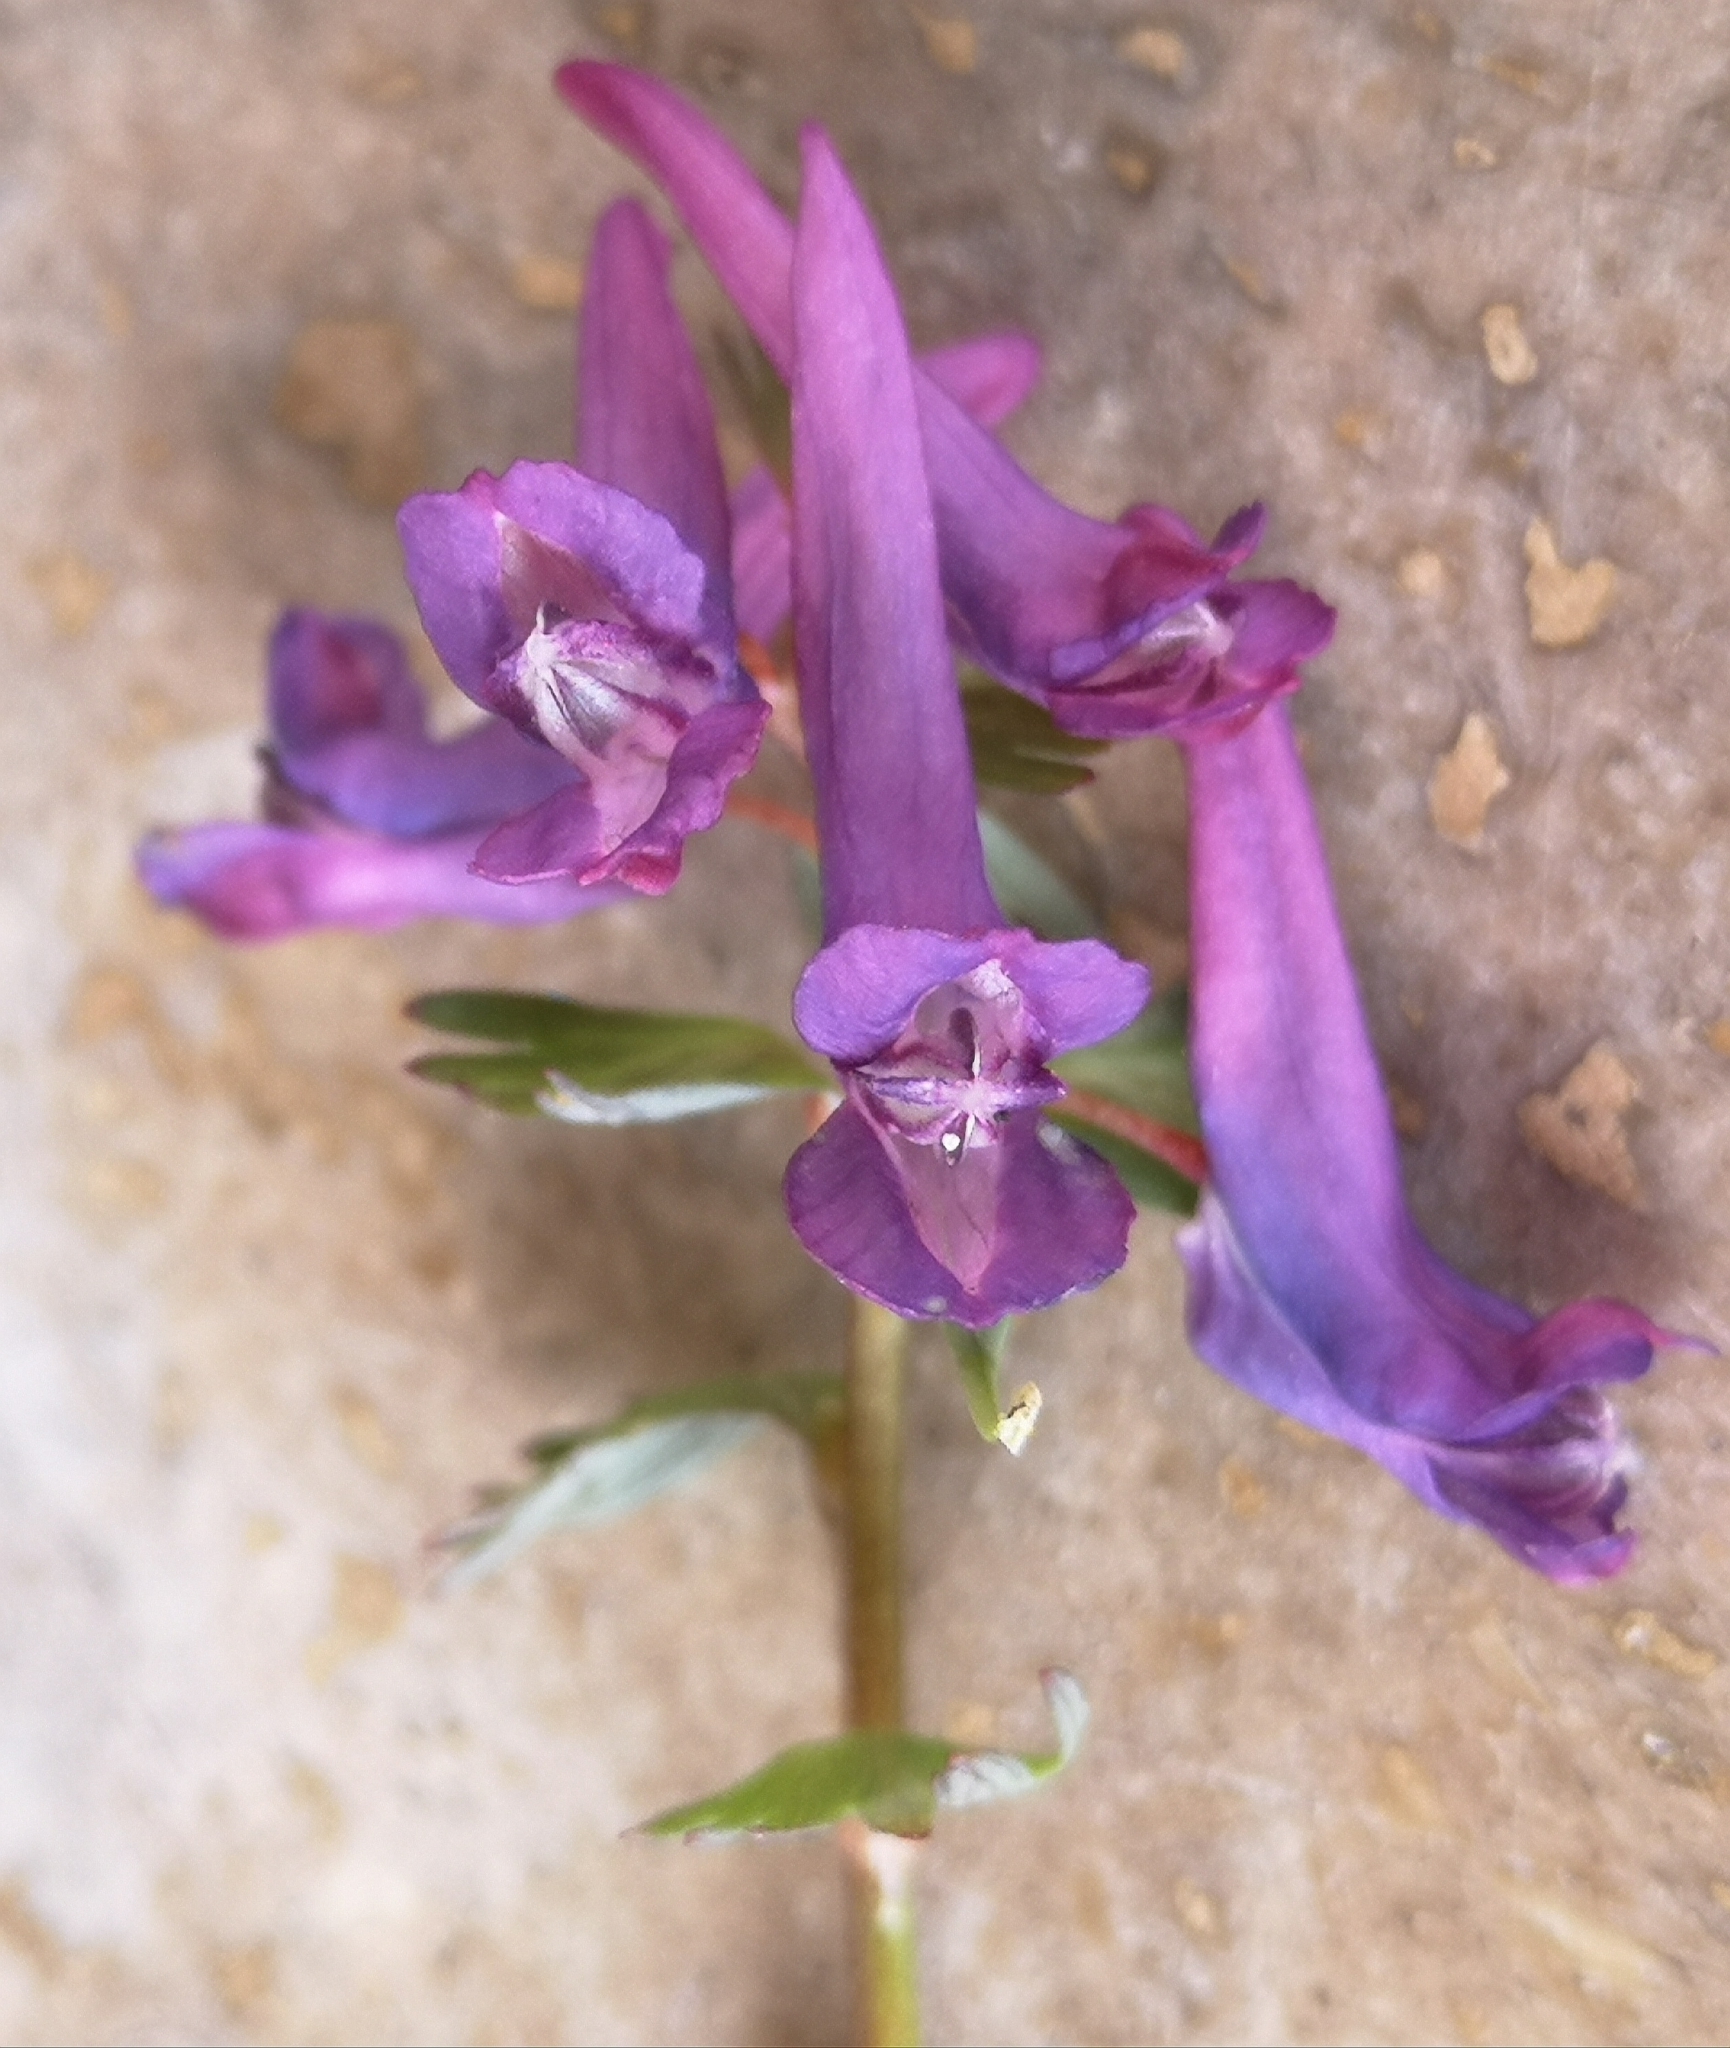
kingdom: Plantae
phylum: Tracheophyta
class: Magnoliopsida
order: Ranunculales
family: Papaveraceae
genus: Corydalis
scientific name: Corydalis solida
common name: Bird-in-a-bush
